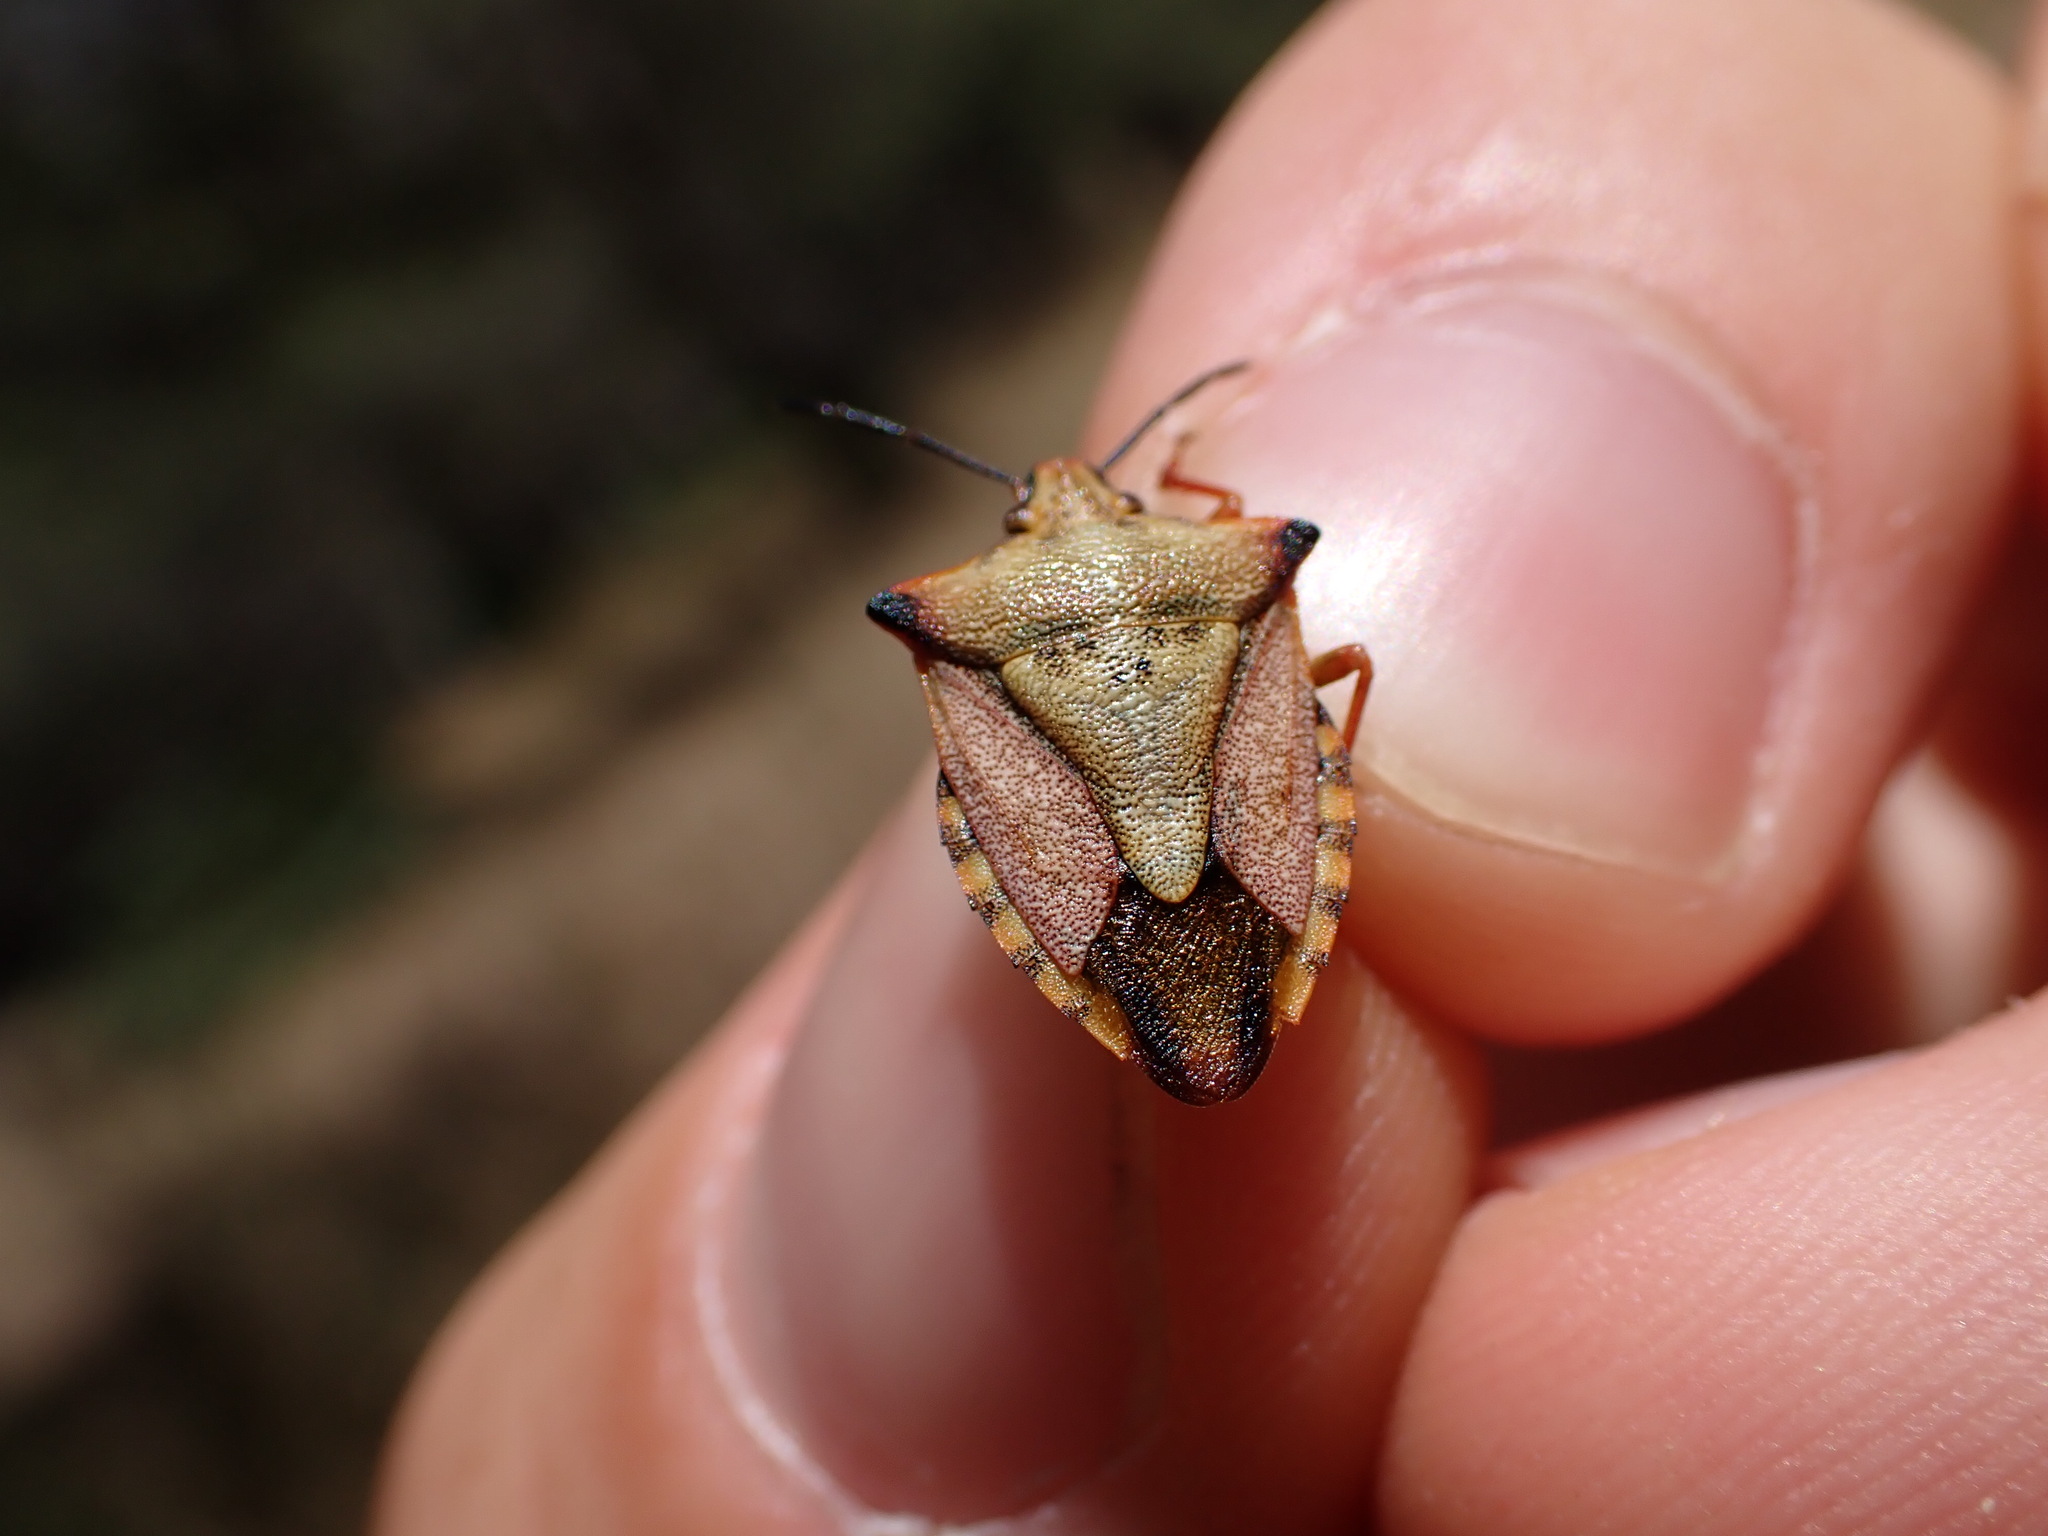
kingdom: Animalia
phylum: Arthropoda
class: Insecta
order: Hemiptera
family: Pentatomidae
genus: Carpocoris
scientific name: Carpocoris mediterraneus
